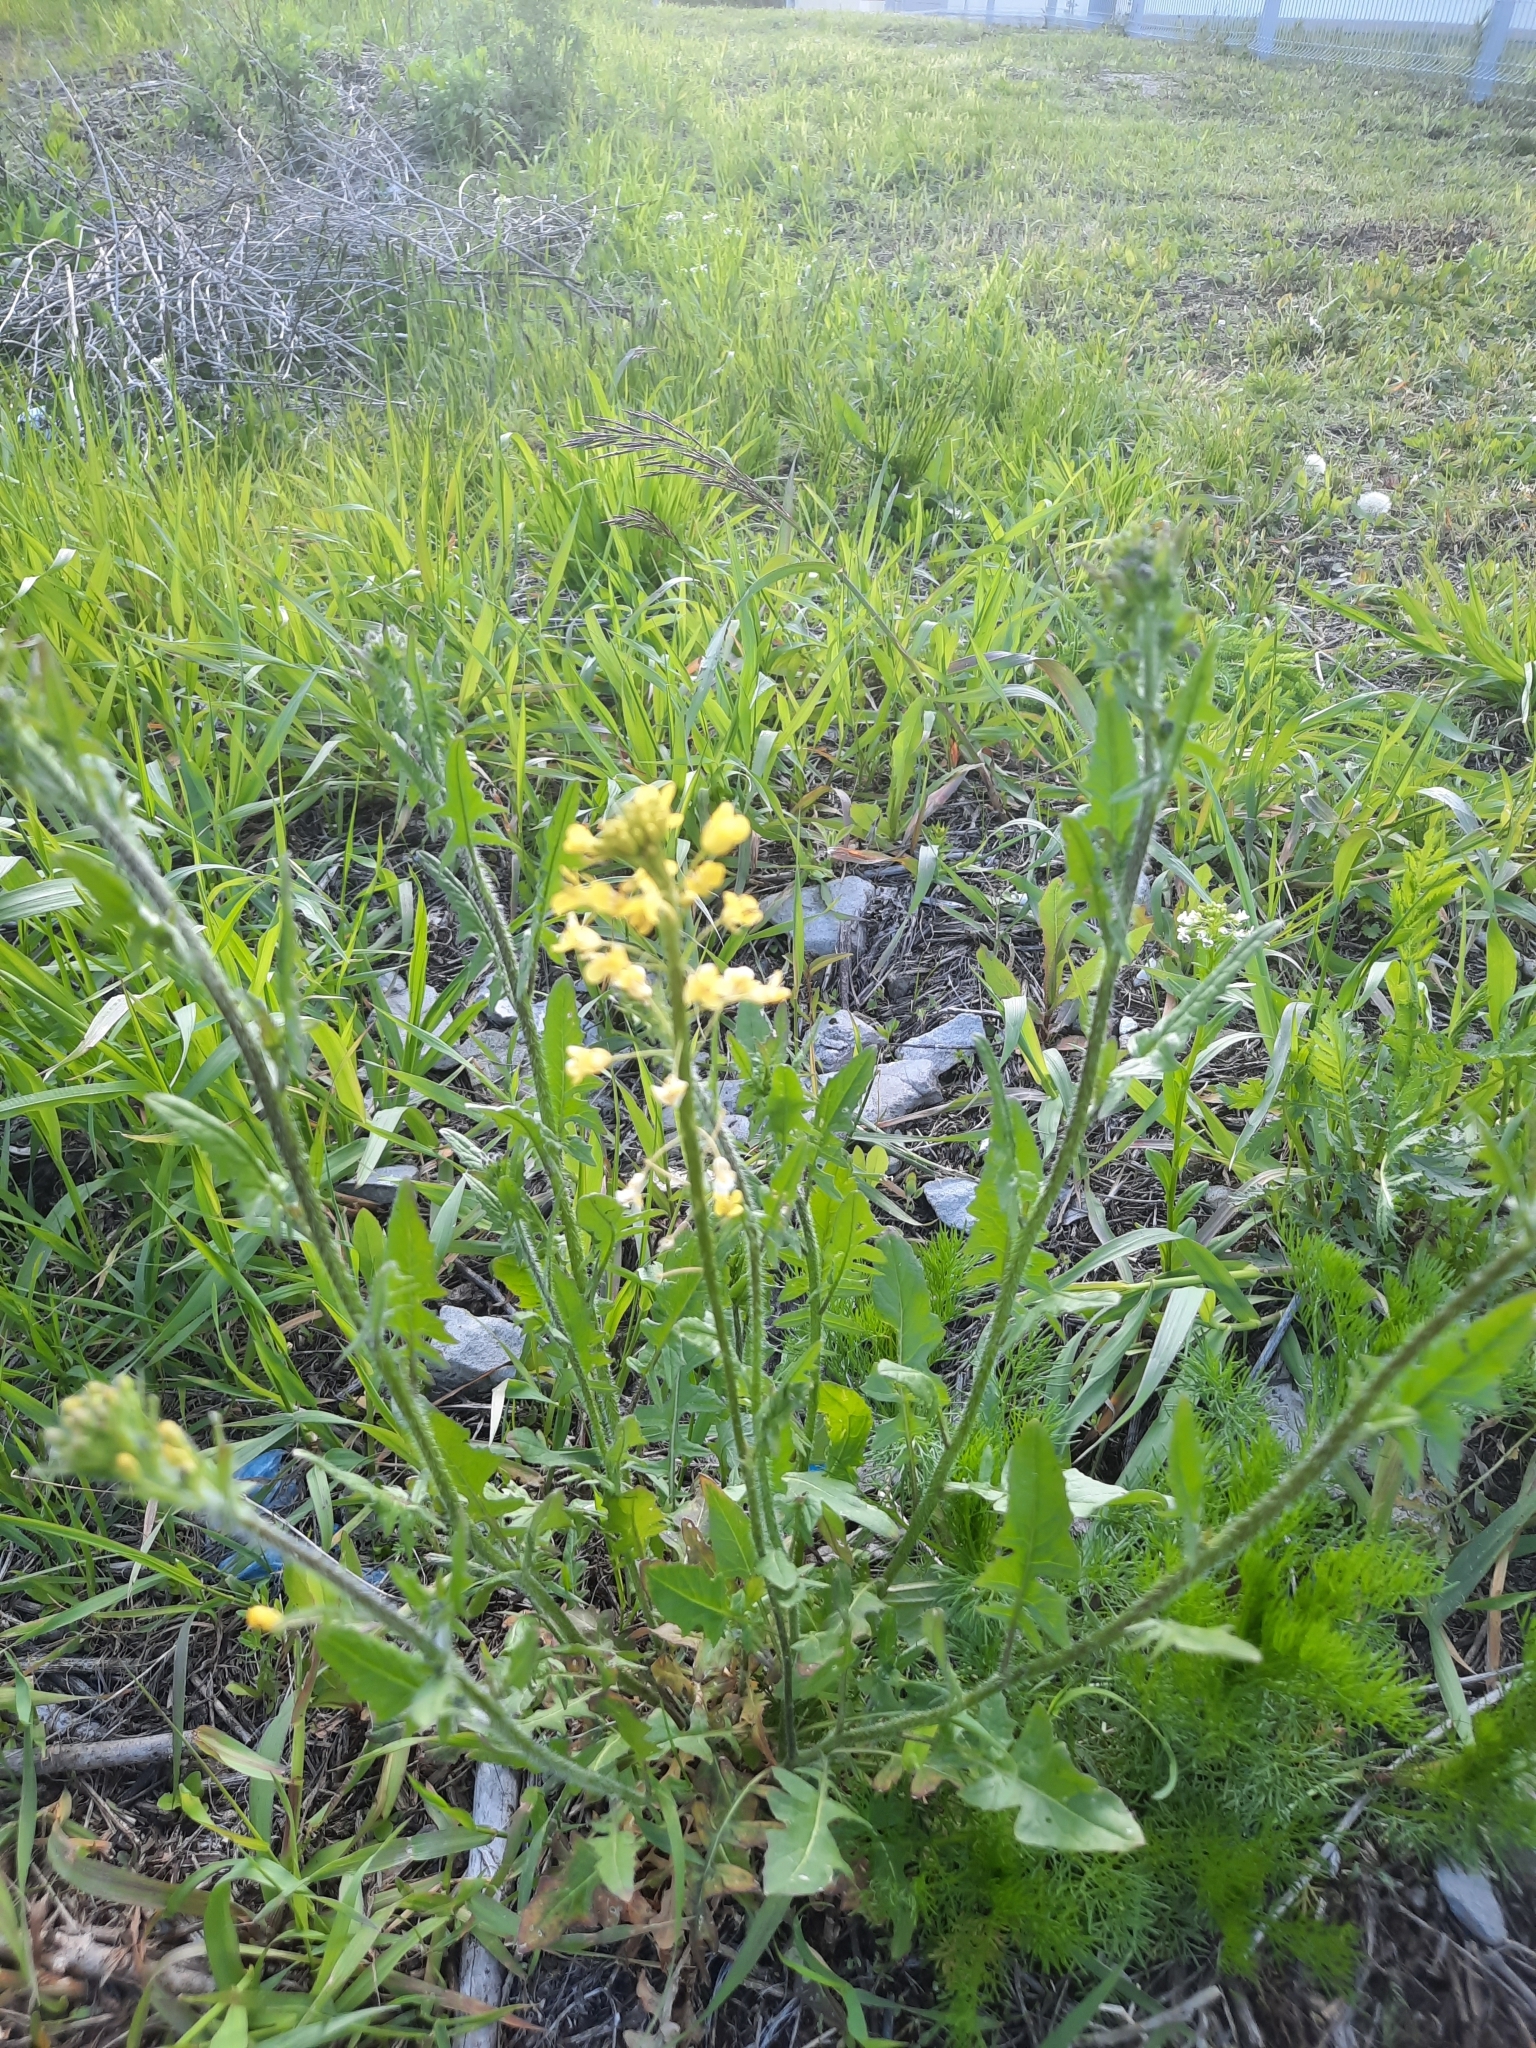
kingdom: Plantae
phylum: Tracheophyta
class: Magnoliopsida
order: Brassicales
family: Brassicaceae
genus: Sisymbrium
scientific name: Sisymbrium loeselii
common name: False london-rocket
